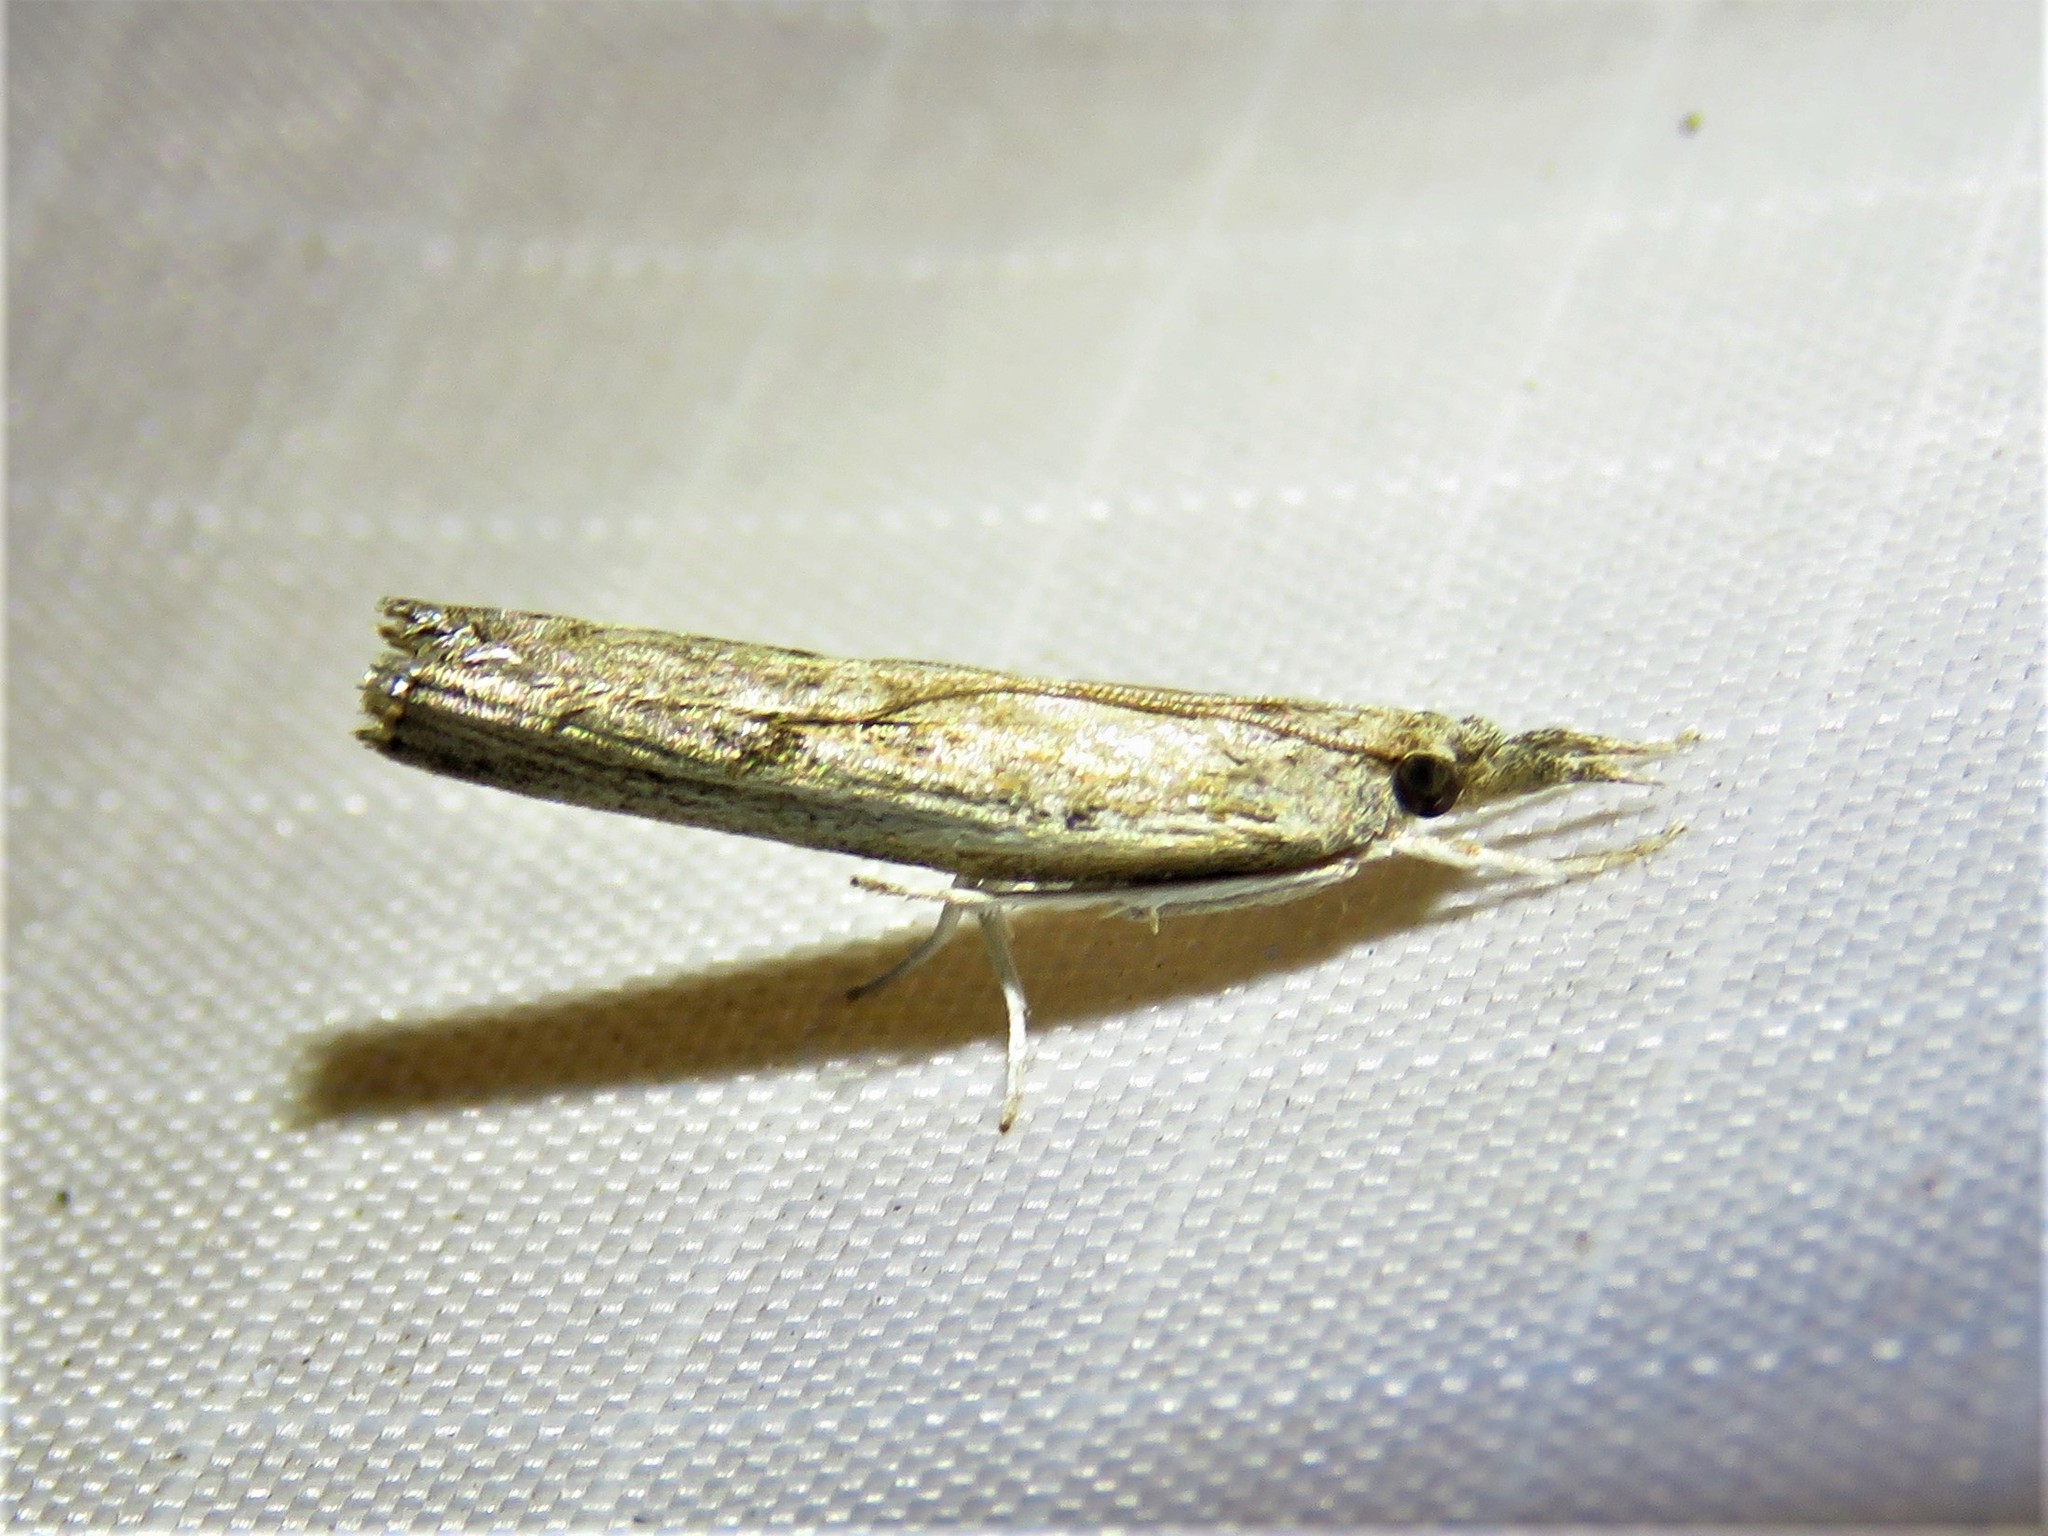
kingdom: Animalia
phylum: Arthropoda
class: Insecta
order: Lepidoptera
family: Crambidae
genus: Parapediasia
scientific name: Parapediasia teterellus
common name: Bluegrass webworm moth
